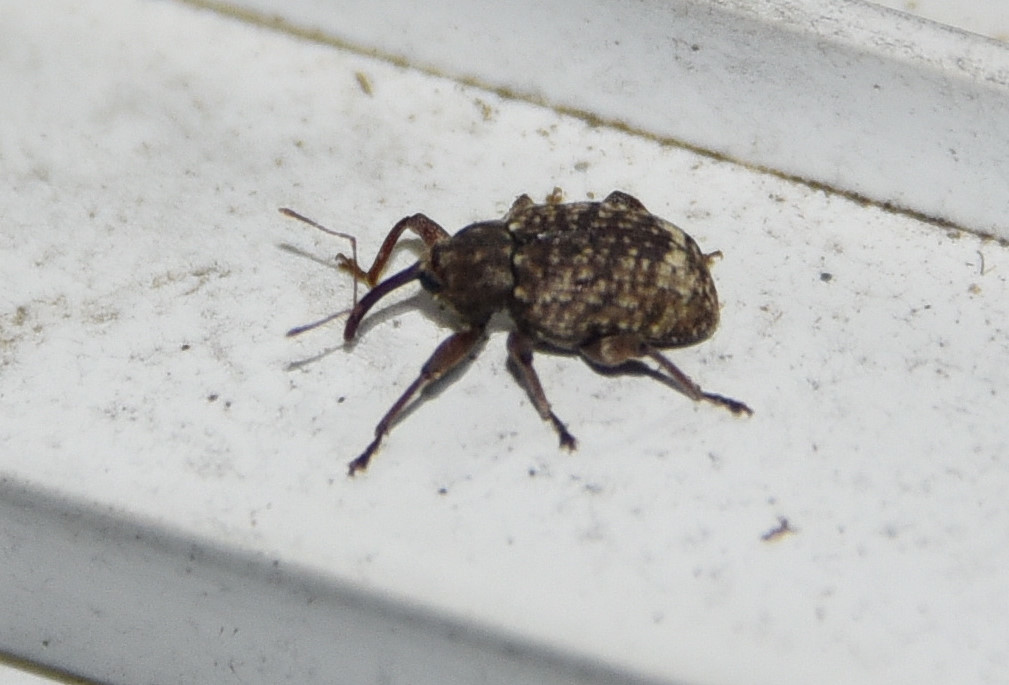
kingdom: Animalia
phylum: Arthropoda
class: Insecta
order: Coleoptera
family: Curculionidae
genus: Conotrachelus
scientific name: Conotrachelus naso
